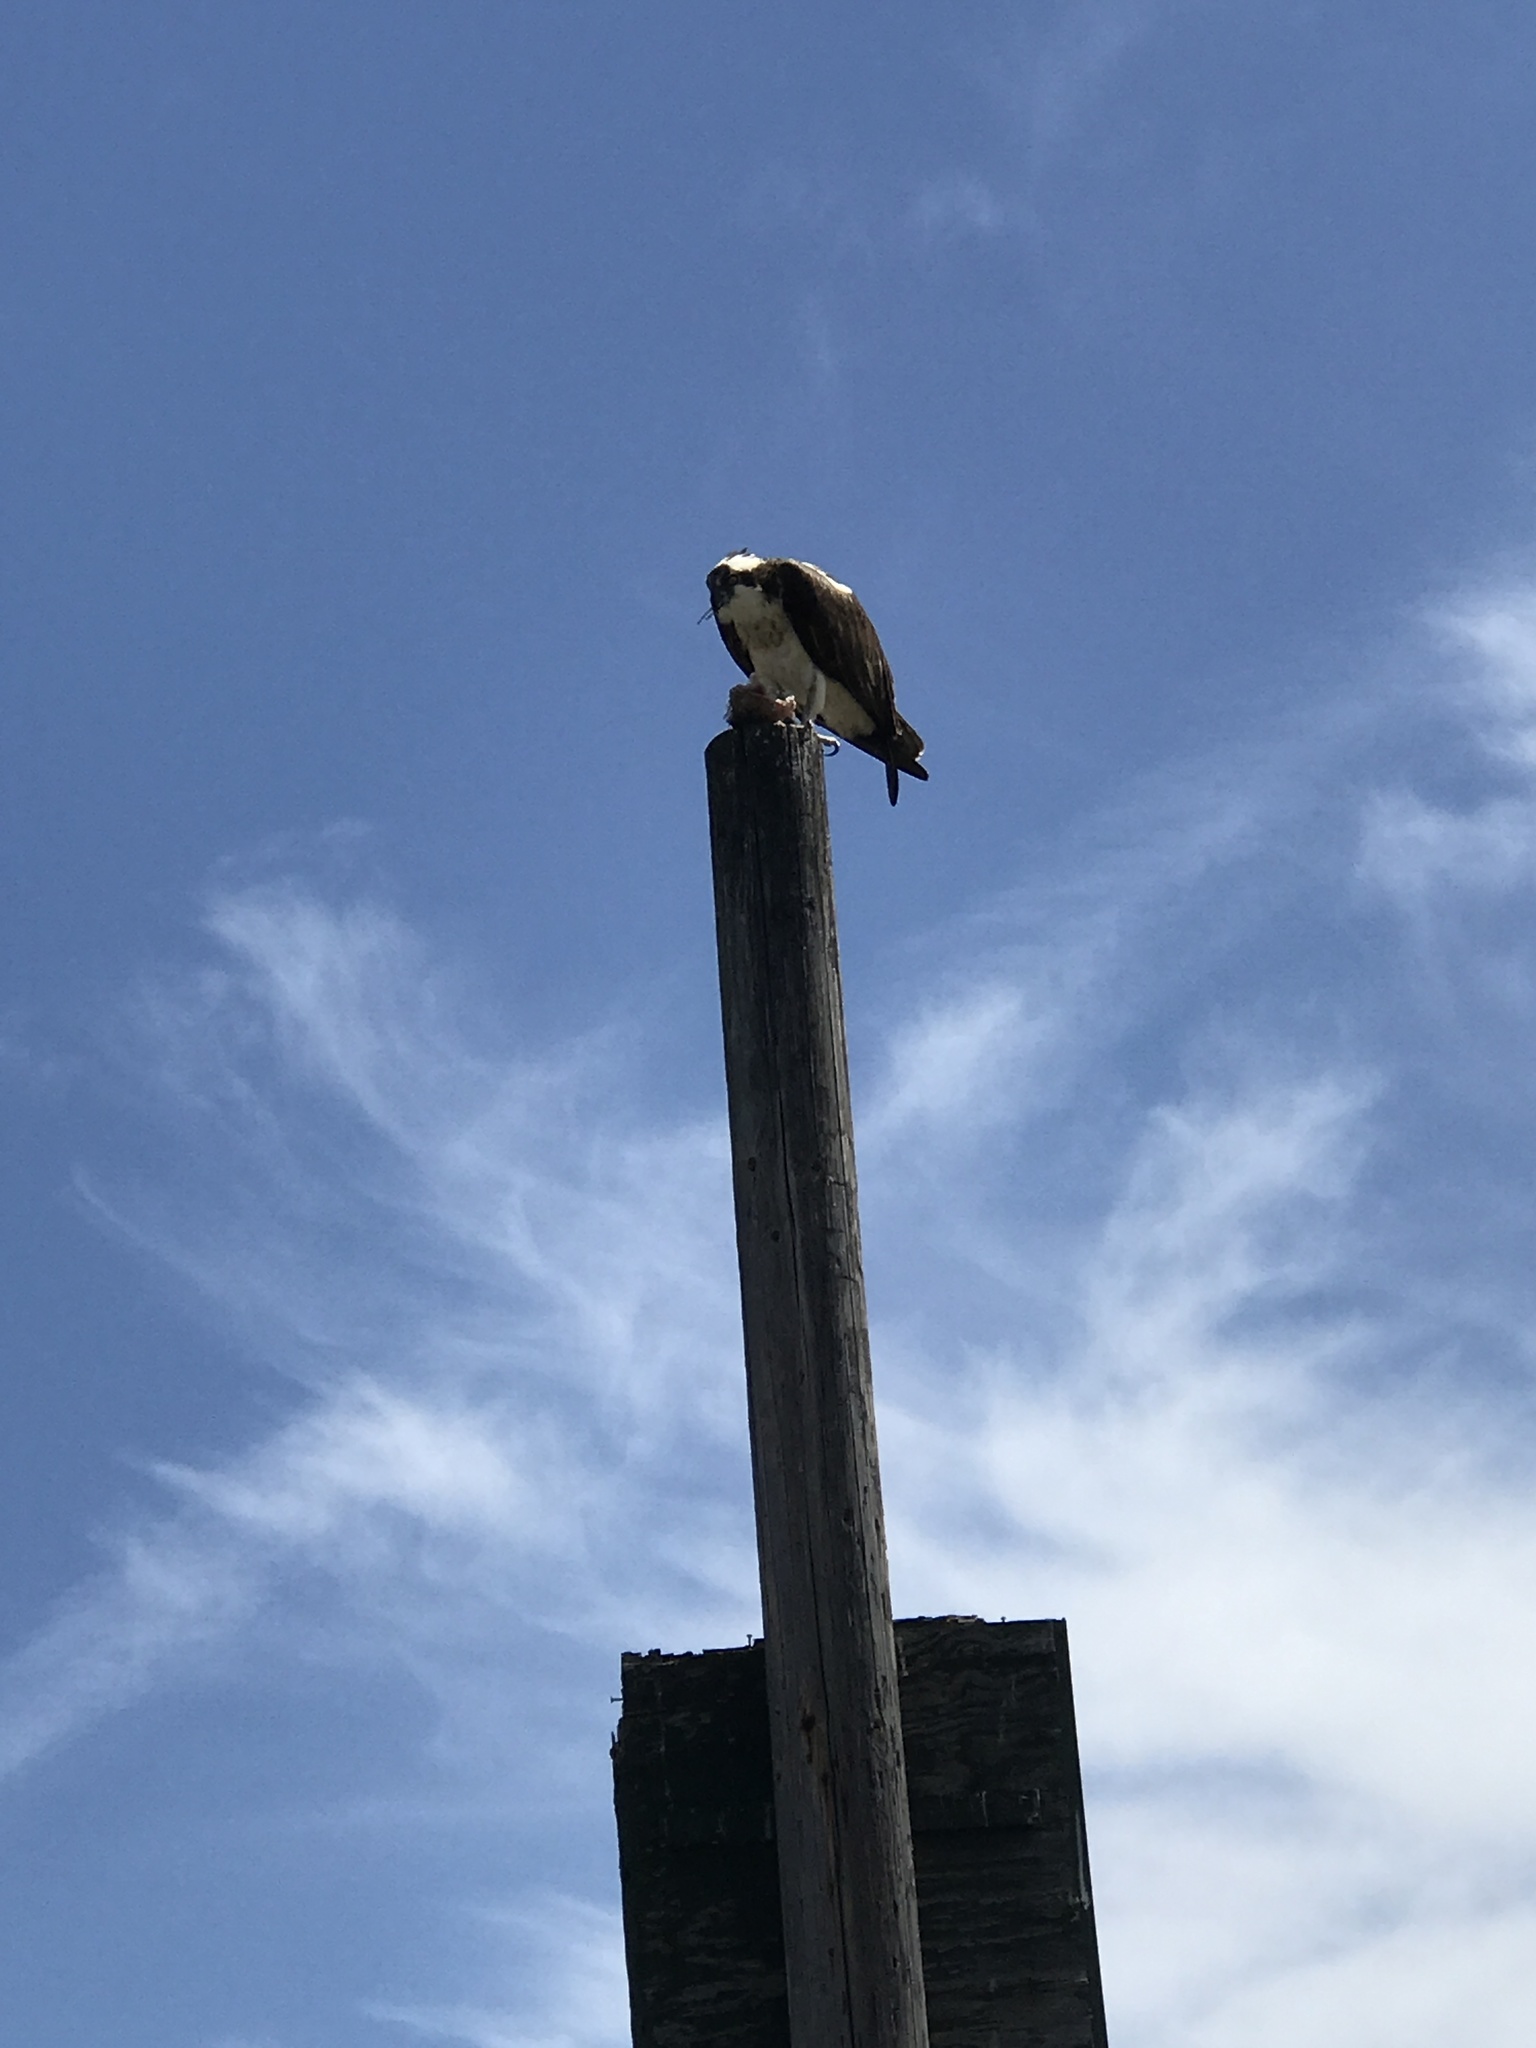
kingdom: Animalia
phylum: Chordata
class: Aves
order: Accipitriformes
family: Pandionidae
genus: Pandion
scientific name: Pandion haliaetus
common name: Osprey
